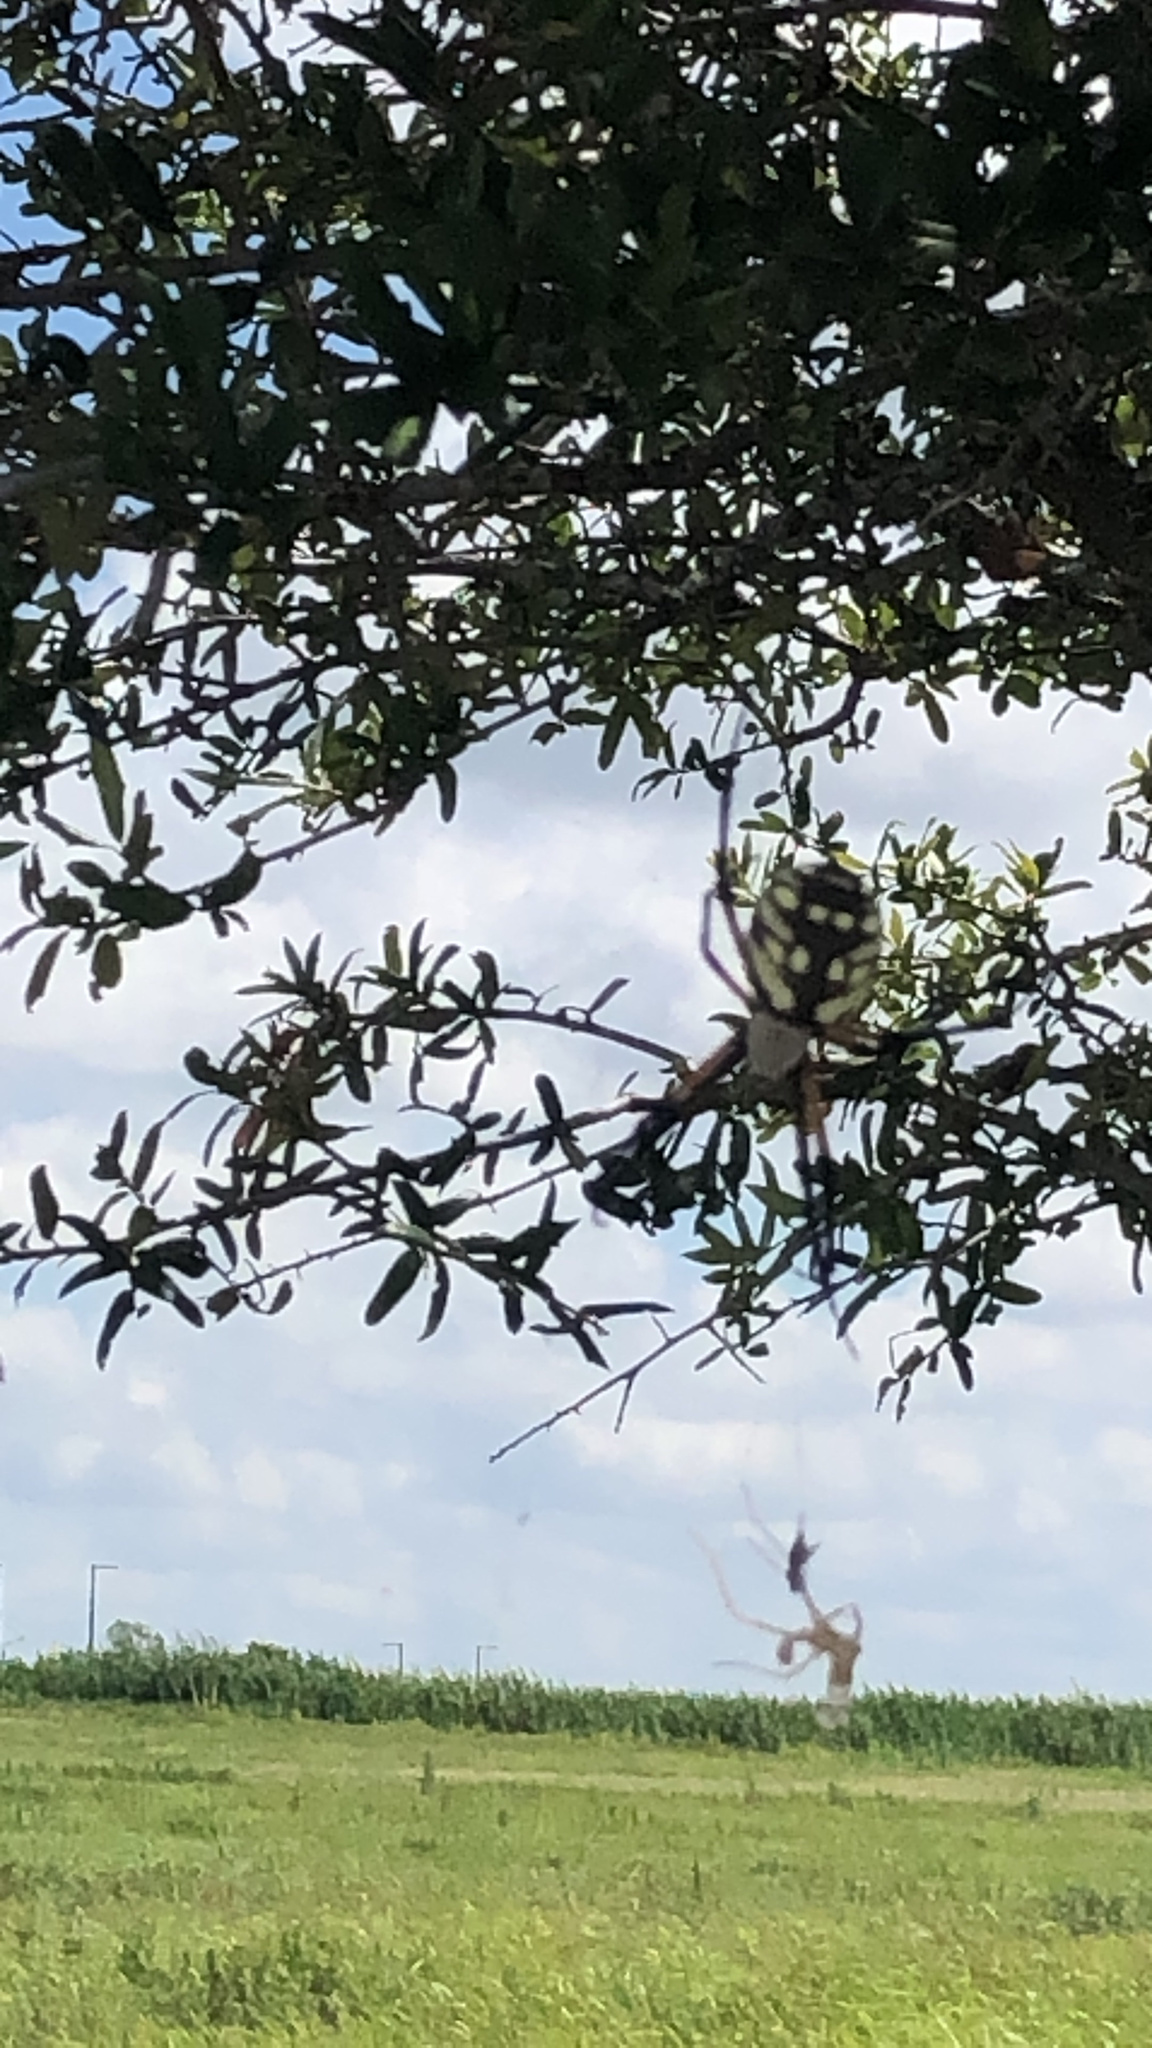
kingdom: Animalia
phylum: Arthropoda
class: Arachnida
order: Araneae
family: Araneidae
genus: Argiope
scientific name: Argiope aurantia
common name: Orb weavers
